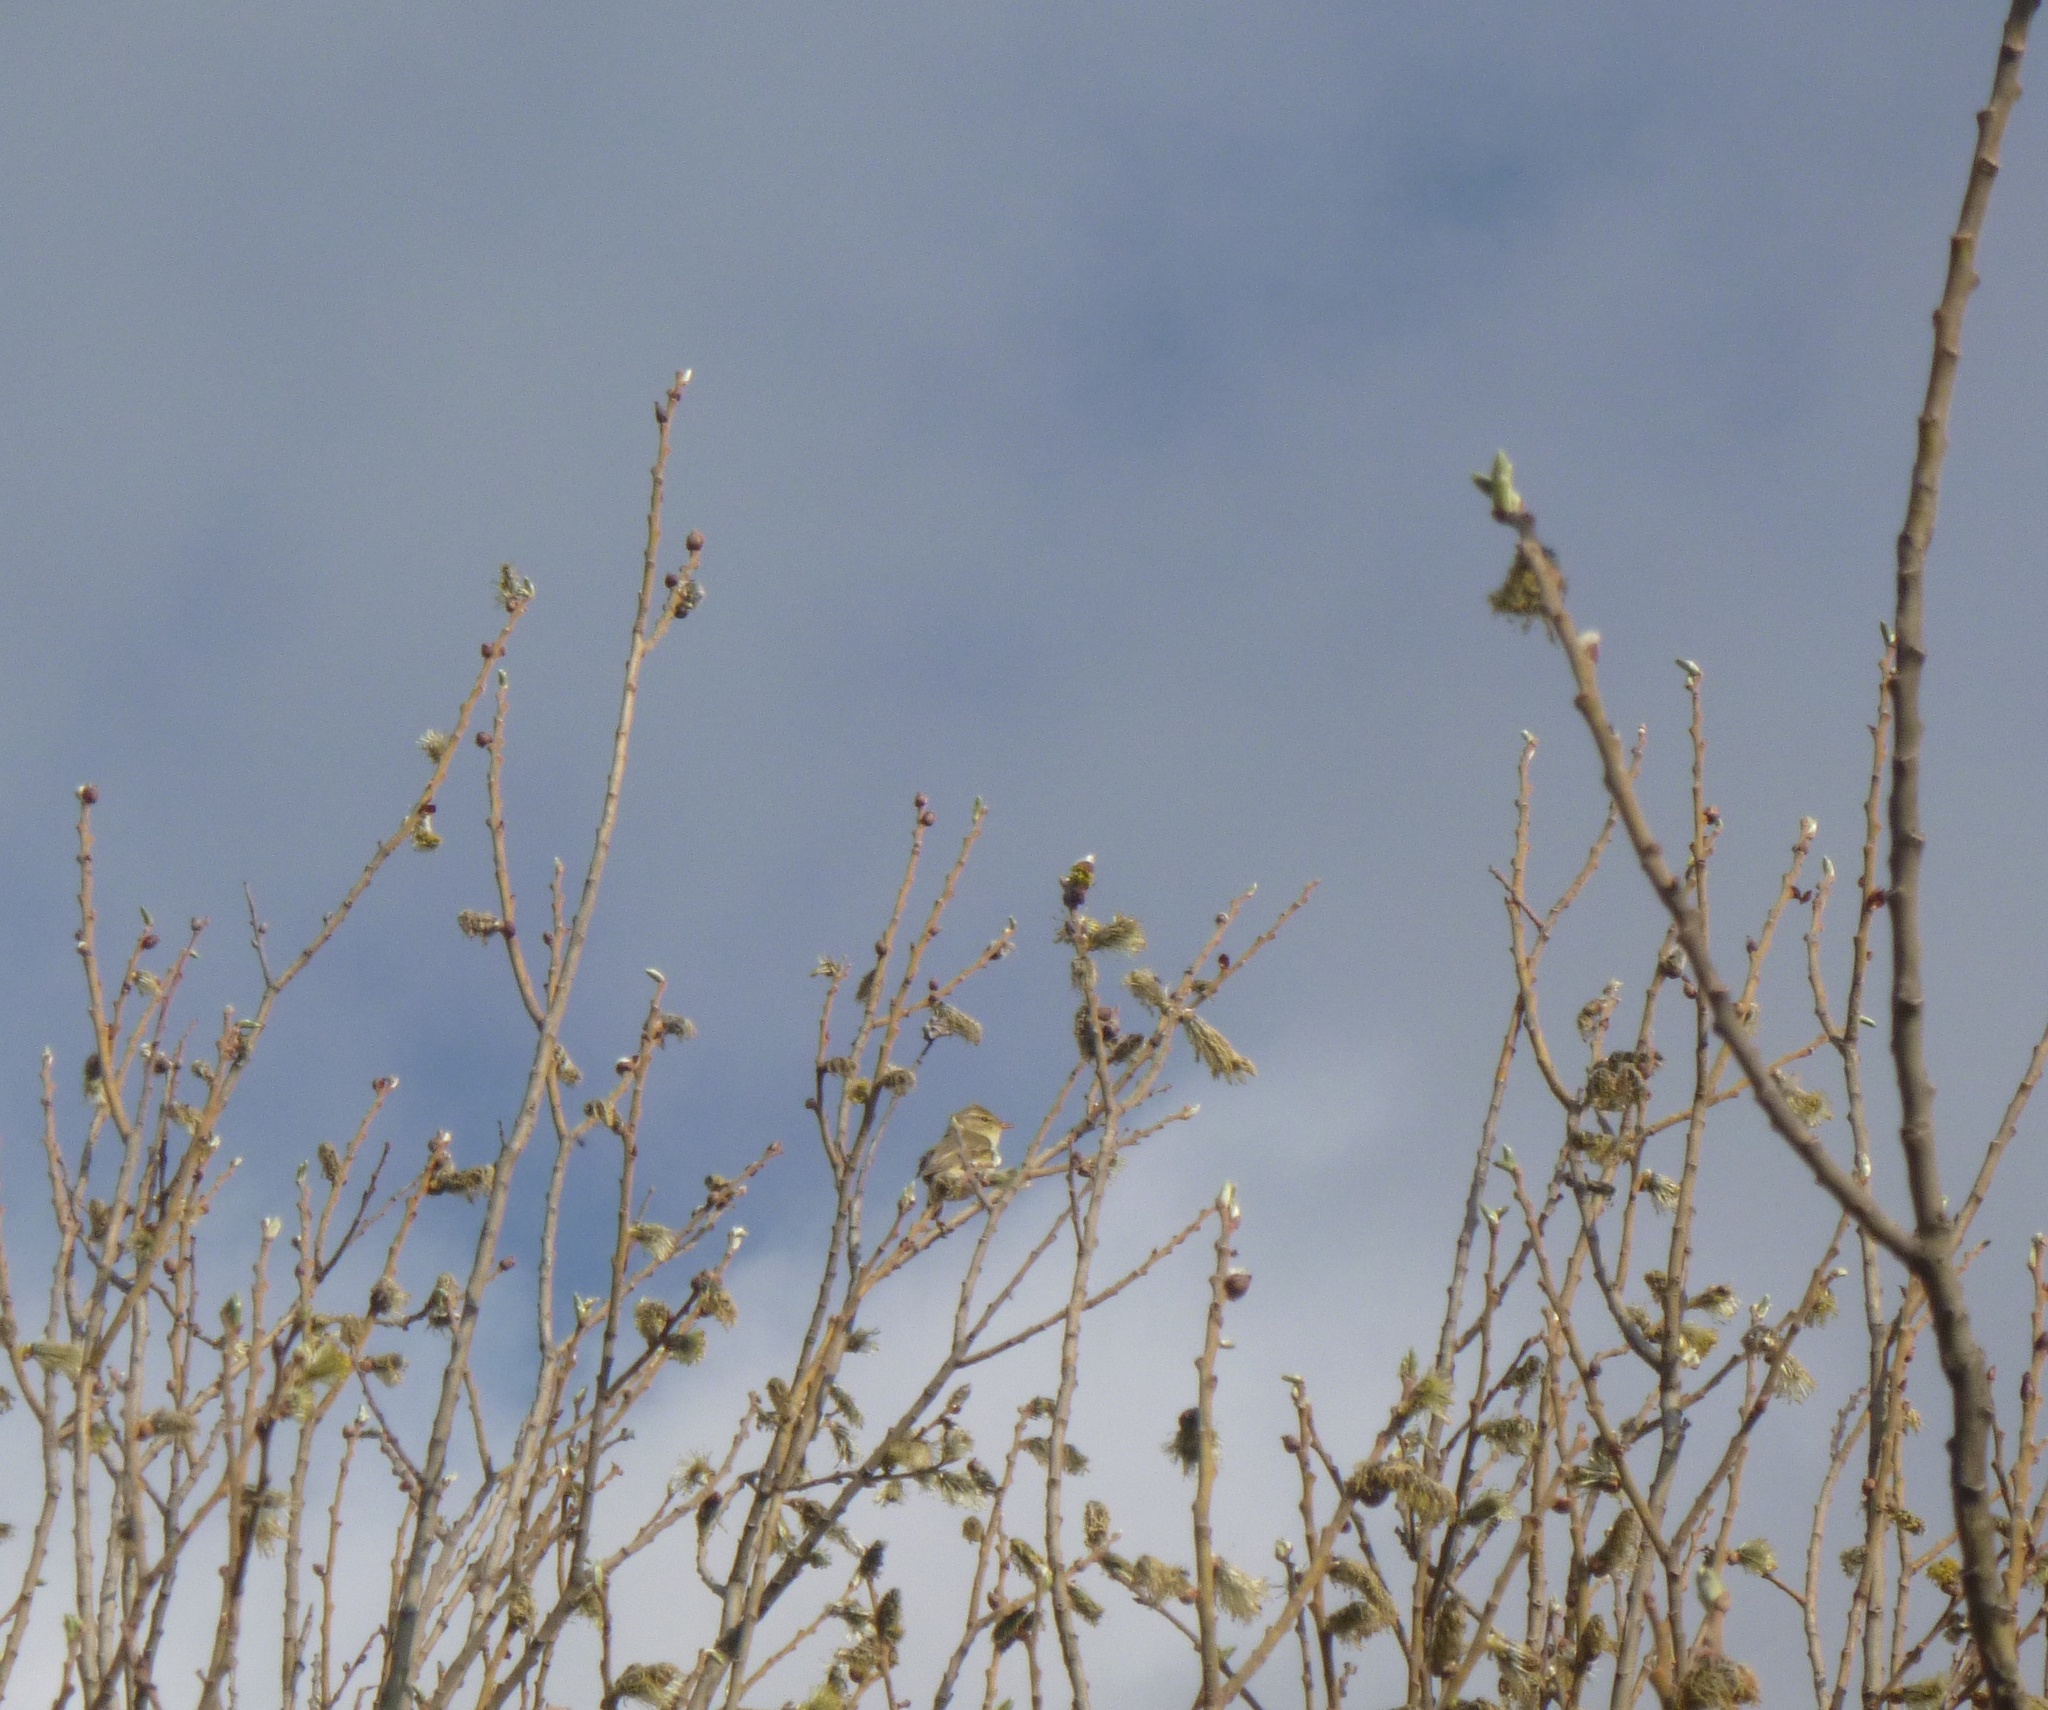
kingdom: Animalia
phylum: Chordata
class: Aves
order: Passeriformes
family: Phylloscopidae
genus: Phylloscopus
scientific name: Phylloscopus sibillatrix
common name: Wood warbler
